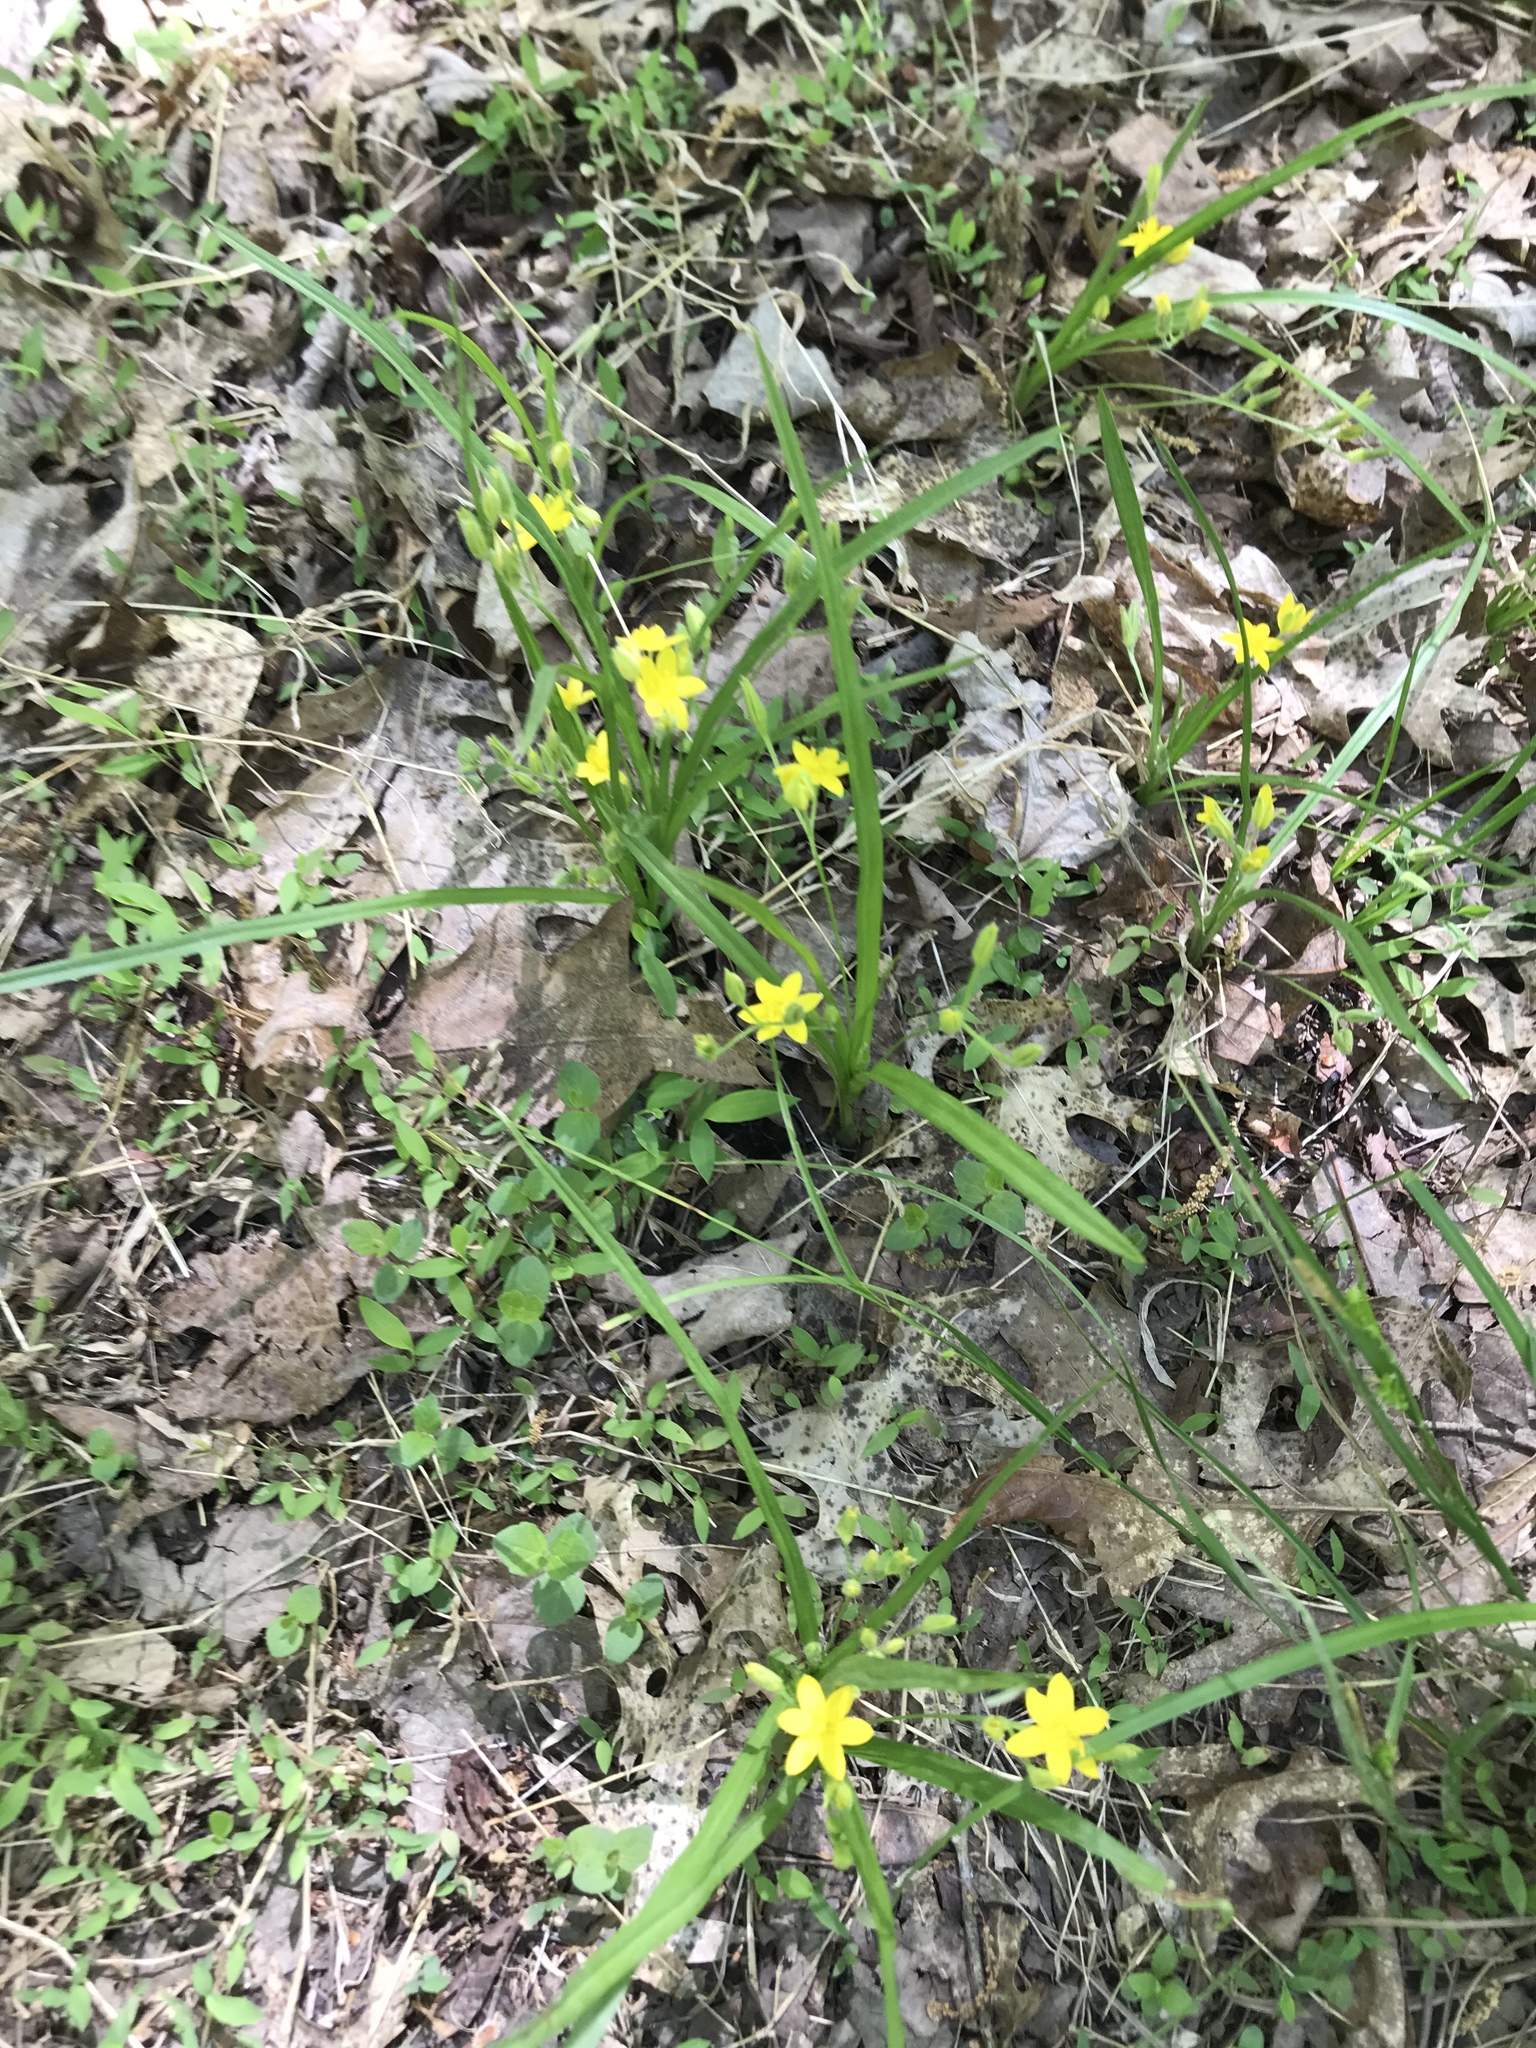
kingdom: Plantae
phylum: Tracheophyta
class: Liliopsida
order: Asparagales
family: Hypoxidaceae
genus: Hypoxis
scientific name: Hypoxis hirsuta
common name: Common goldstar
